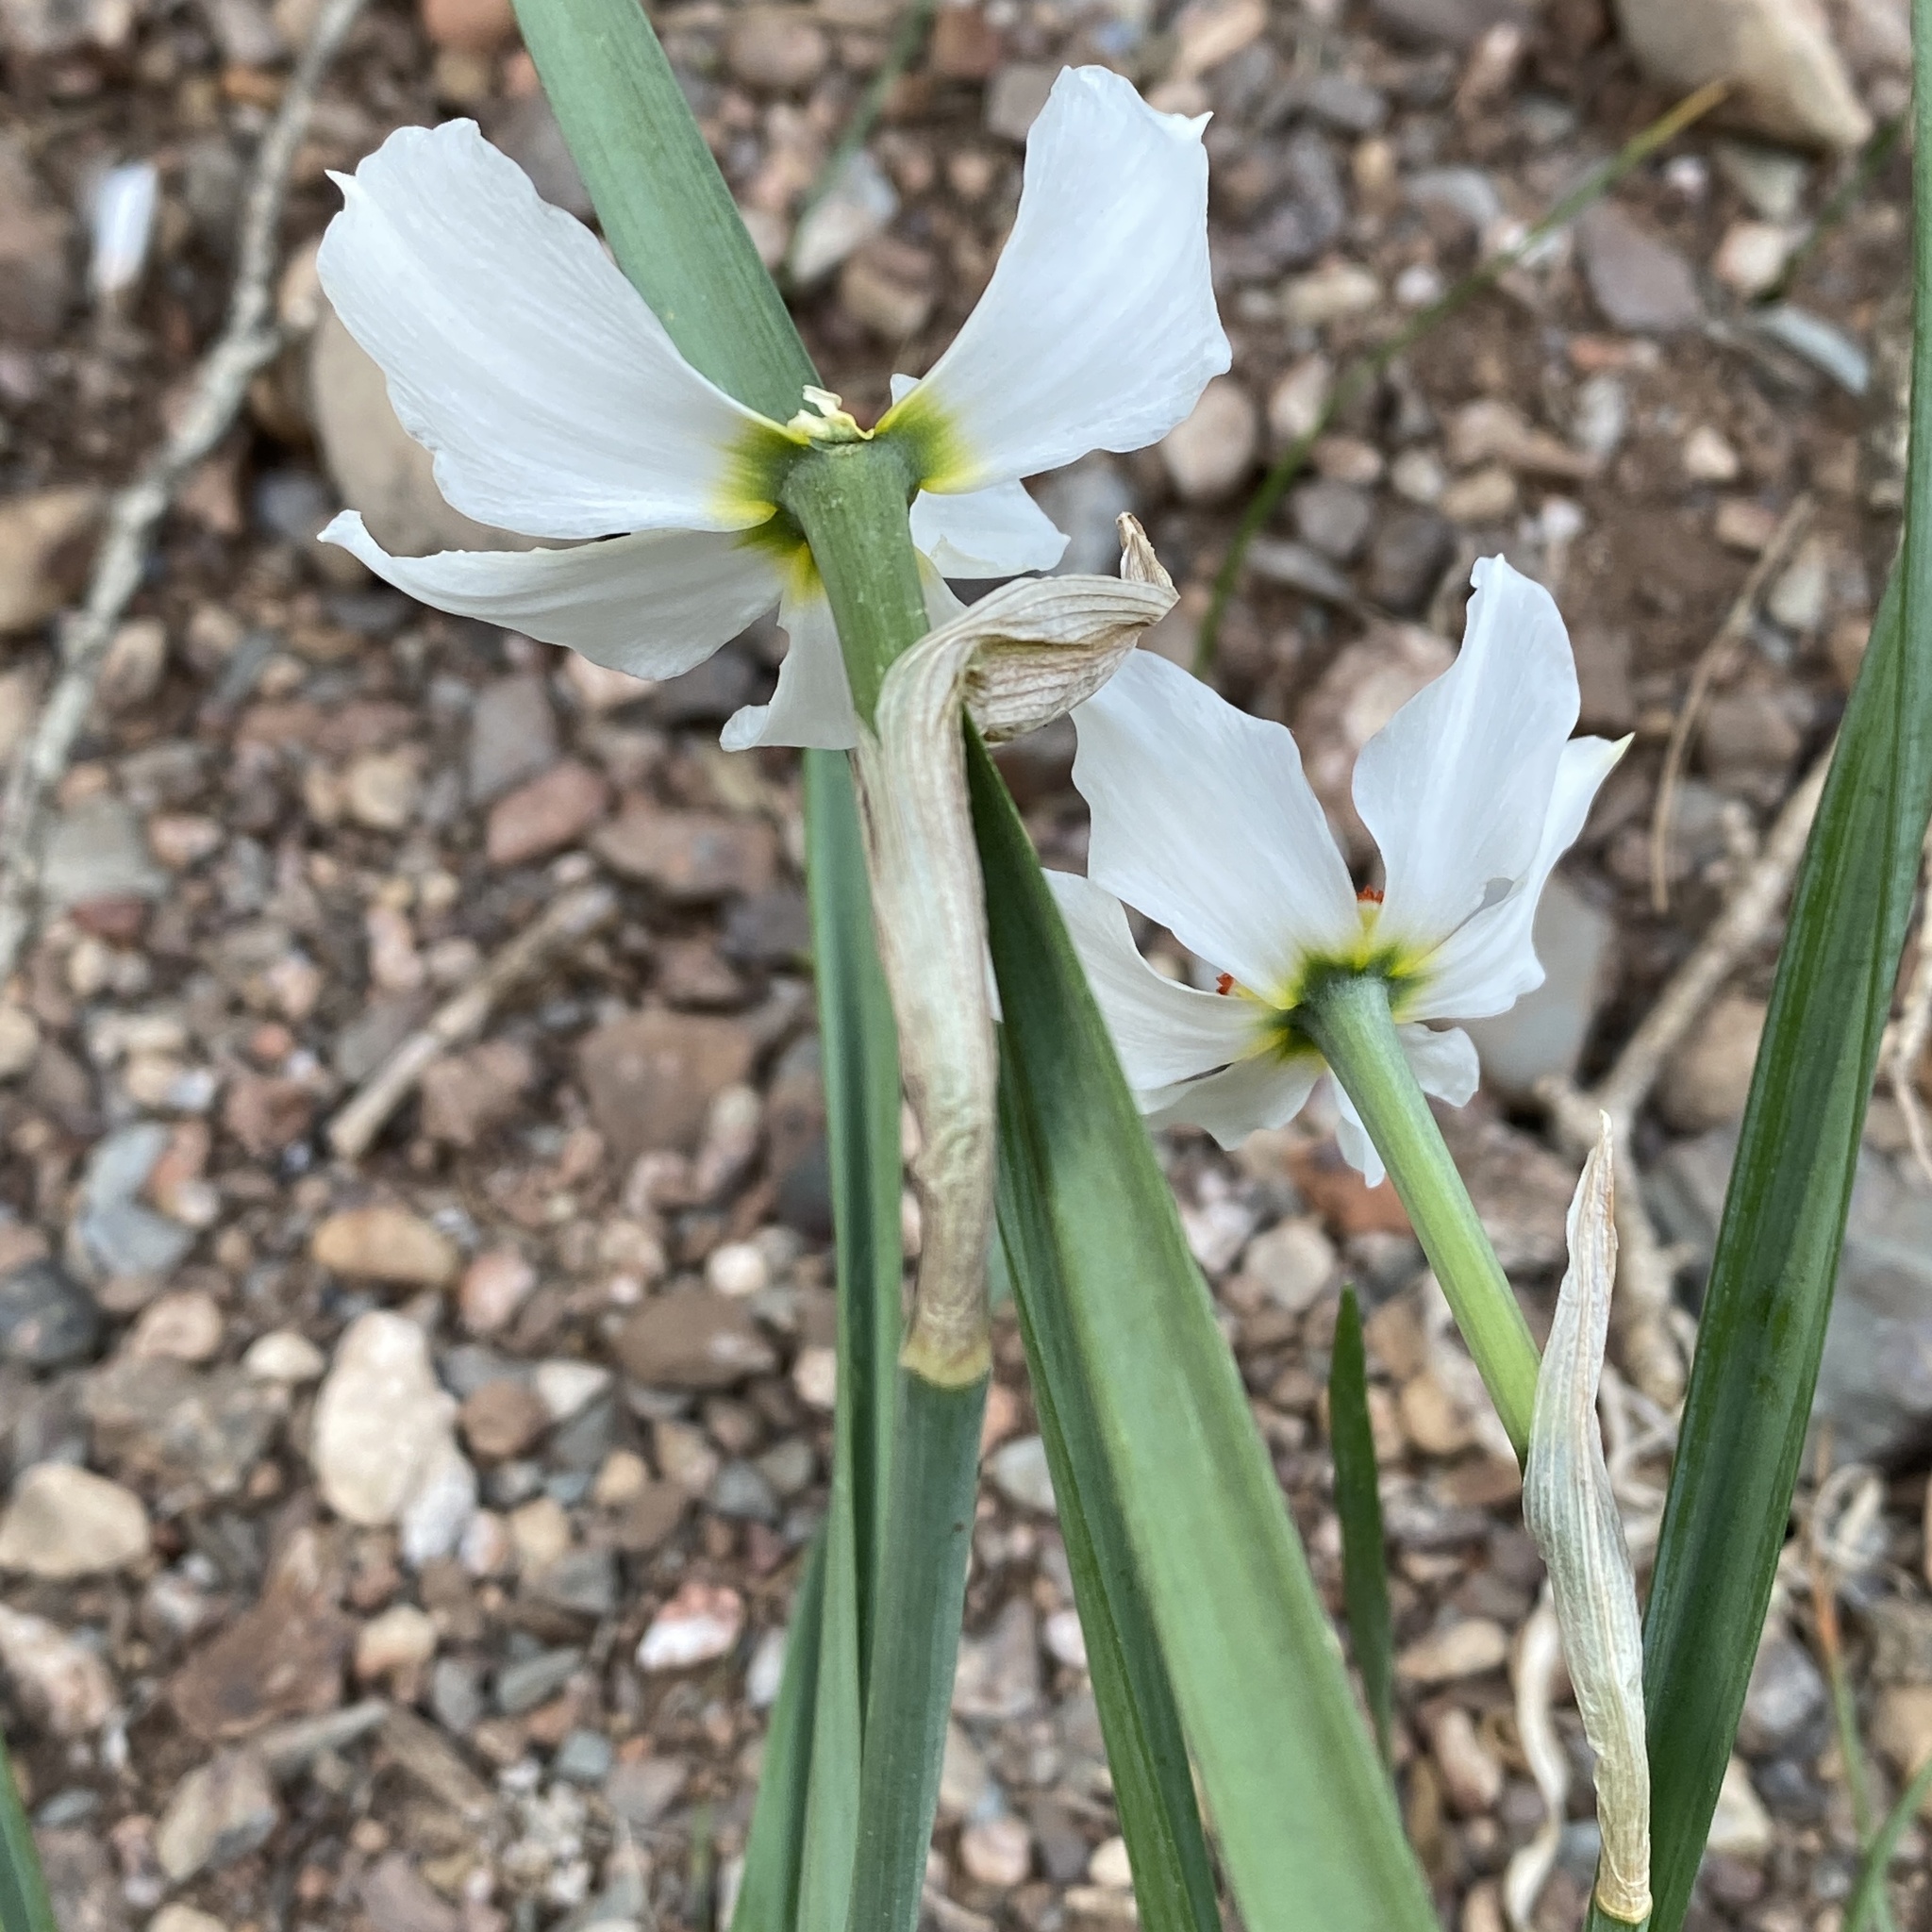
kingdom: Plantae
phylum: Tracheophyta
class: Liliopsida
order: Asparagales
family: Amaryllidaceae
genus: Narcissus
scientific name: Narcissus poeticus
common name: Pheasant's-eye daffodil
